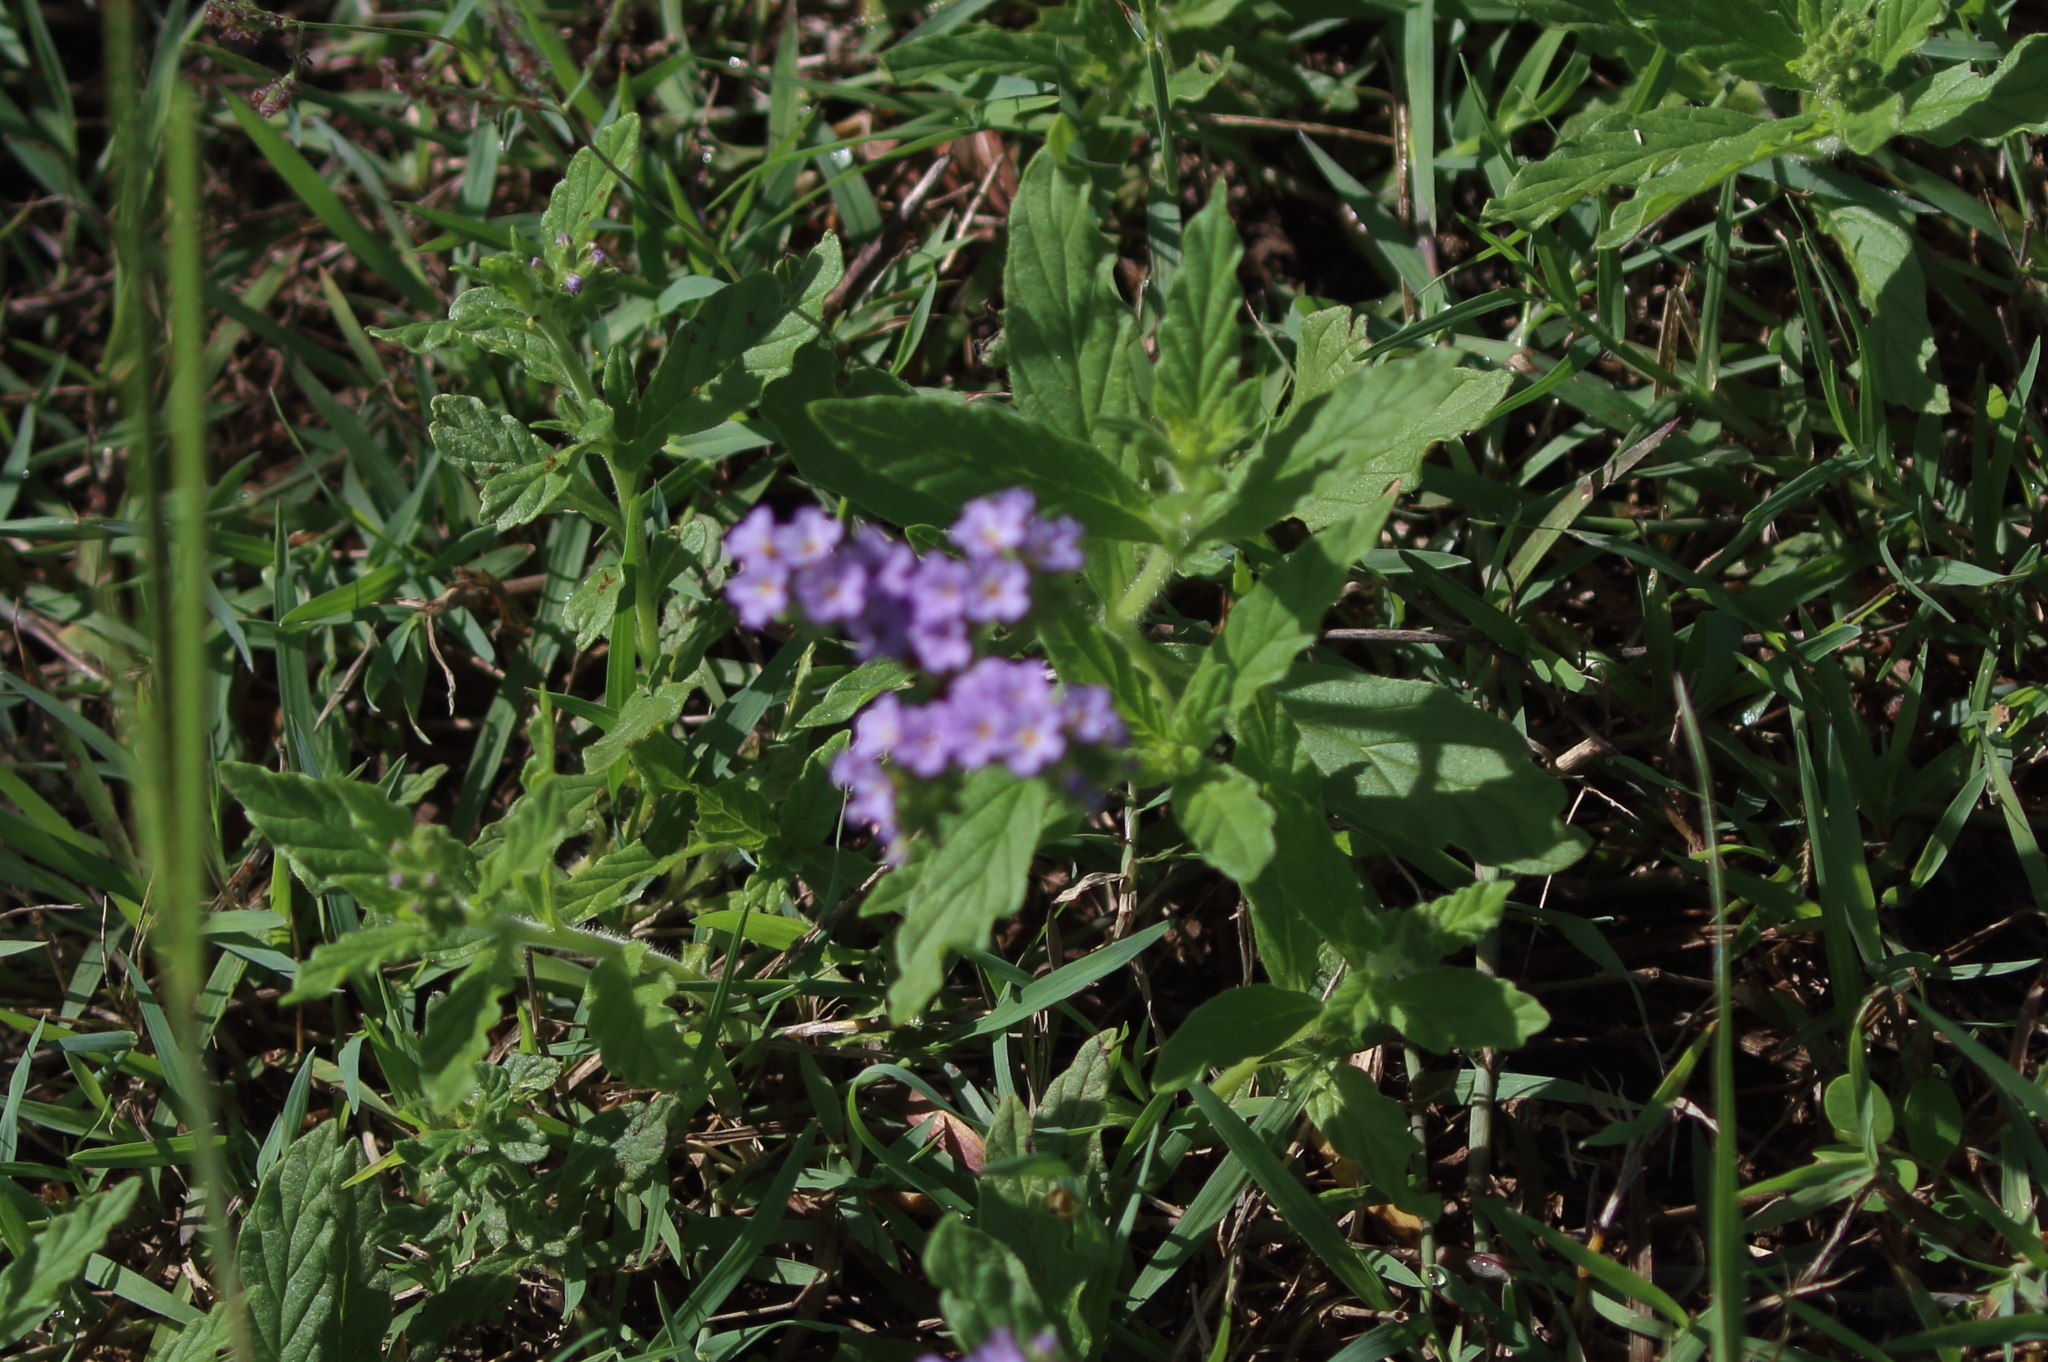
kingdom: Plantae
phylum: Tracheophyta
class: Magnoliopsida
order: Boraginales
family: Heliotropiaceae
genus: Heliotropium
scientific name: Heliotropium amplexicaule
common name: Clasping heliotrope
